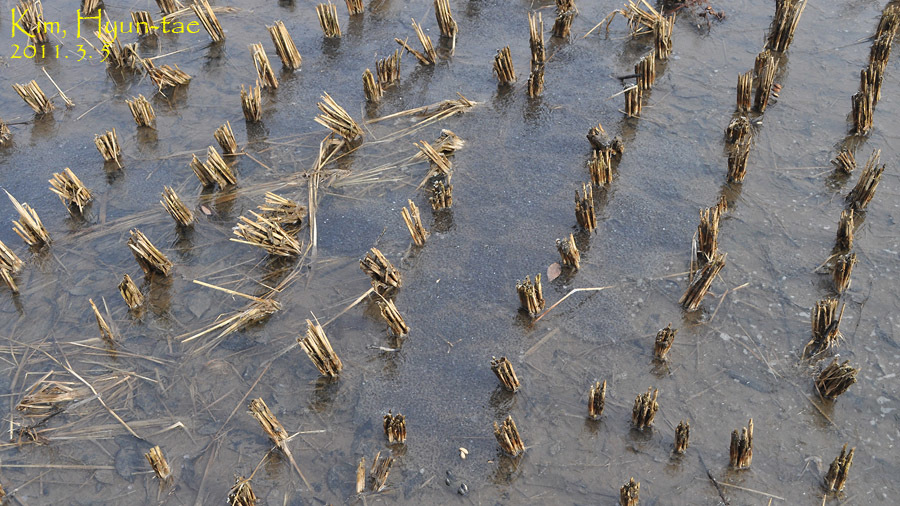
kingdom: Animalia
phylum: Chordata
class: Amphibia
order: Anura
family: Ranidae
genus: Rana
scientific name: Rana uenoi
